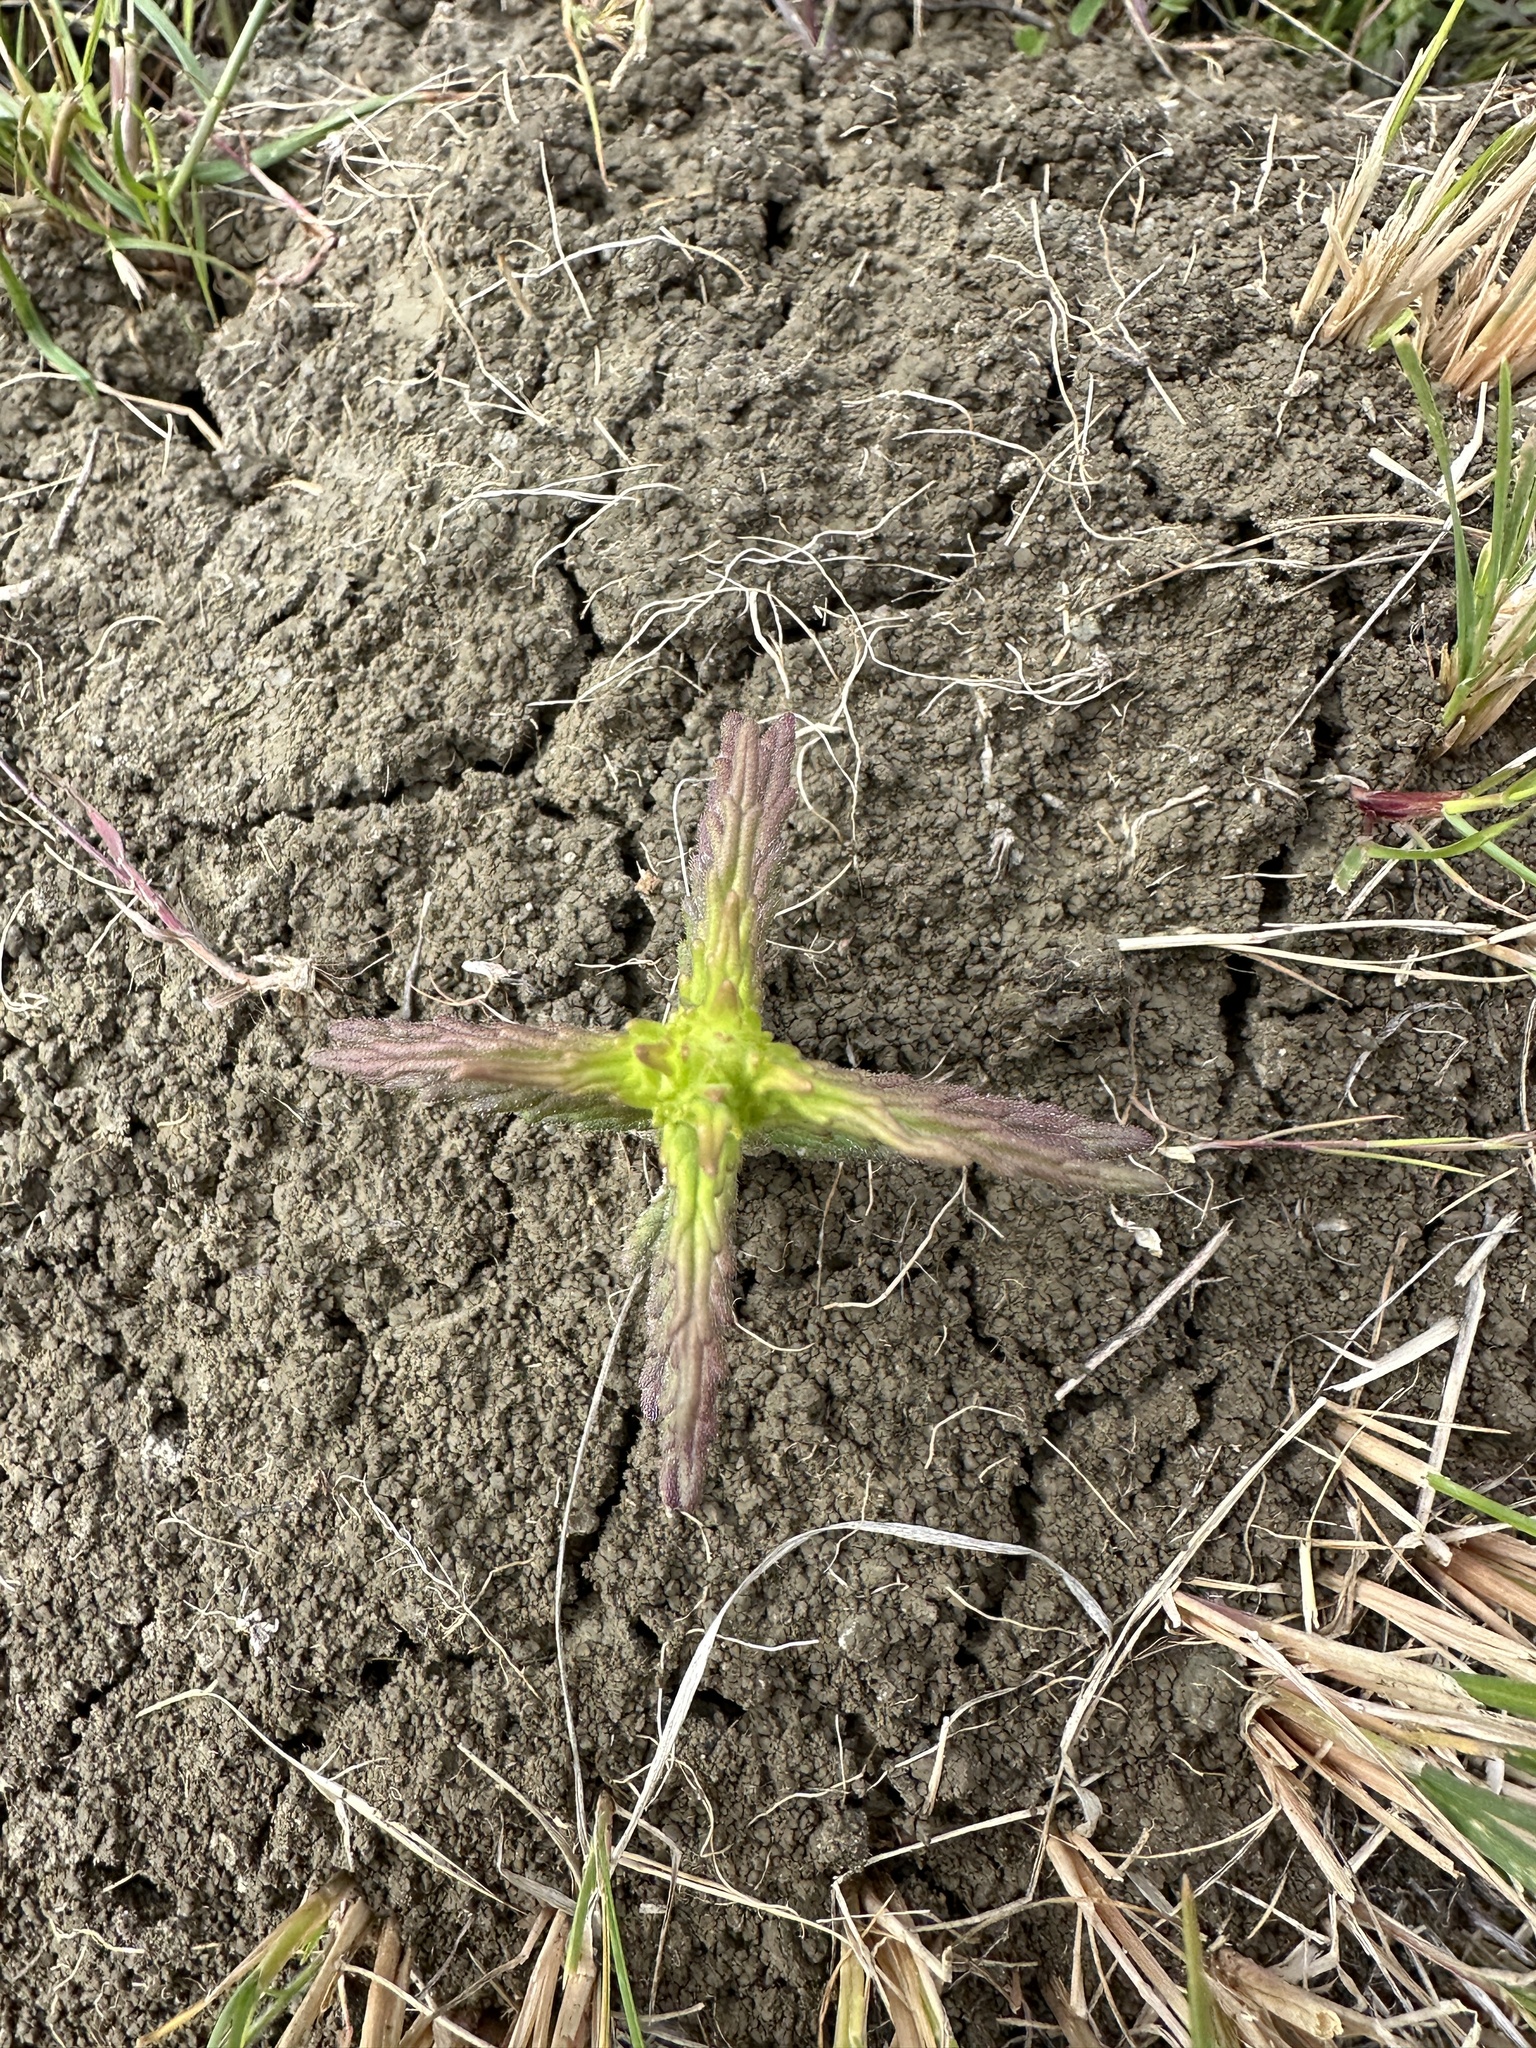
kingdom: Plantae
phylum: Tracheophyta
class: Magnoliopsida
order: Lamiales
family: Orobanchaceae
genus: Bellardia
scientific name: Bellardia trixago
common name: Mediterranean lineseed
